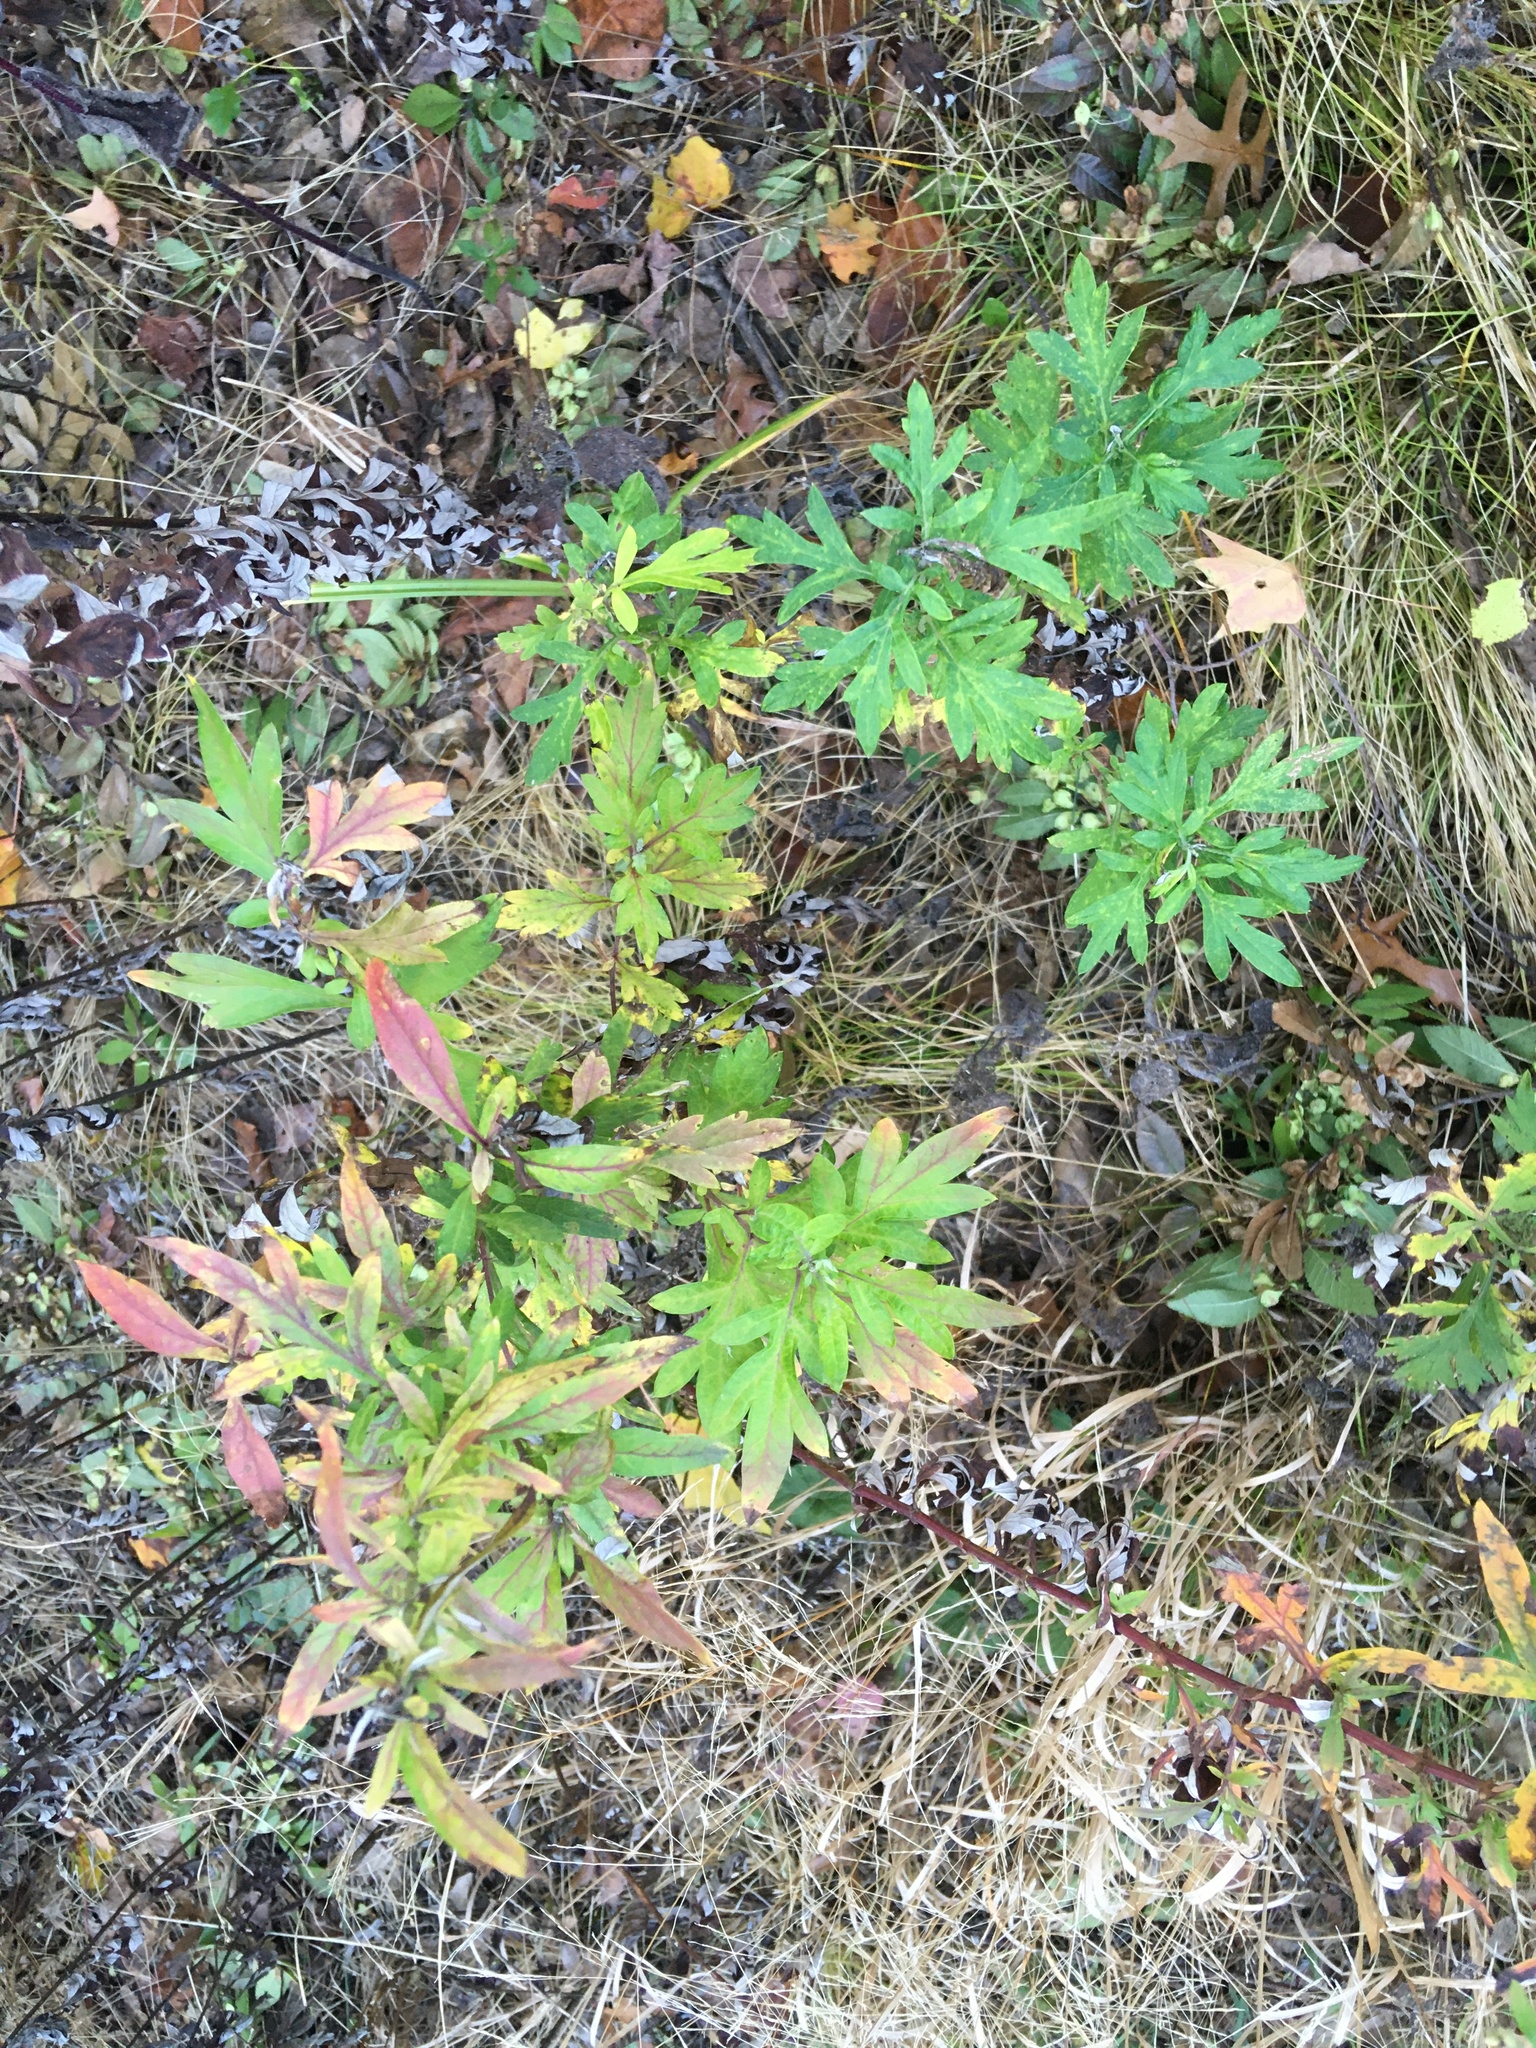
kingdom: Plantae
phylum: Tracheophyta
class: Magnoliopsida
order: Asterales
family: Asteraceae
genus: Artemisia
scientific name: Artemisia vulgaris
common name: Mugwort
